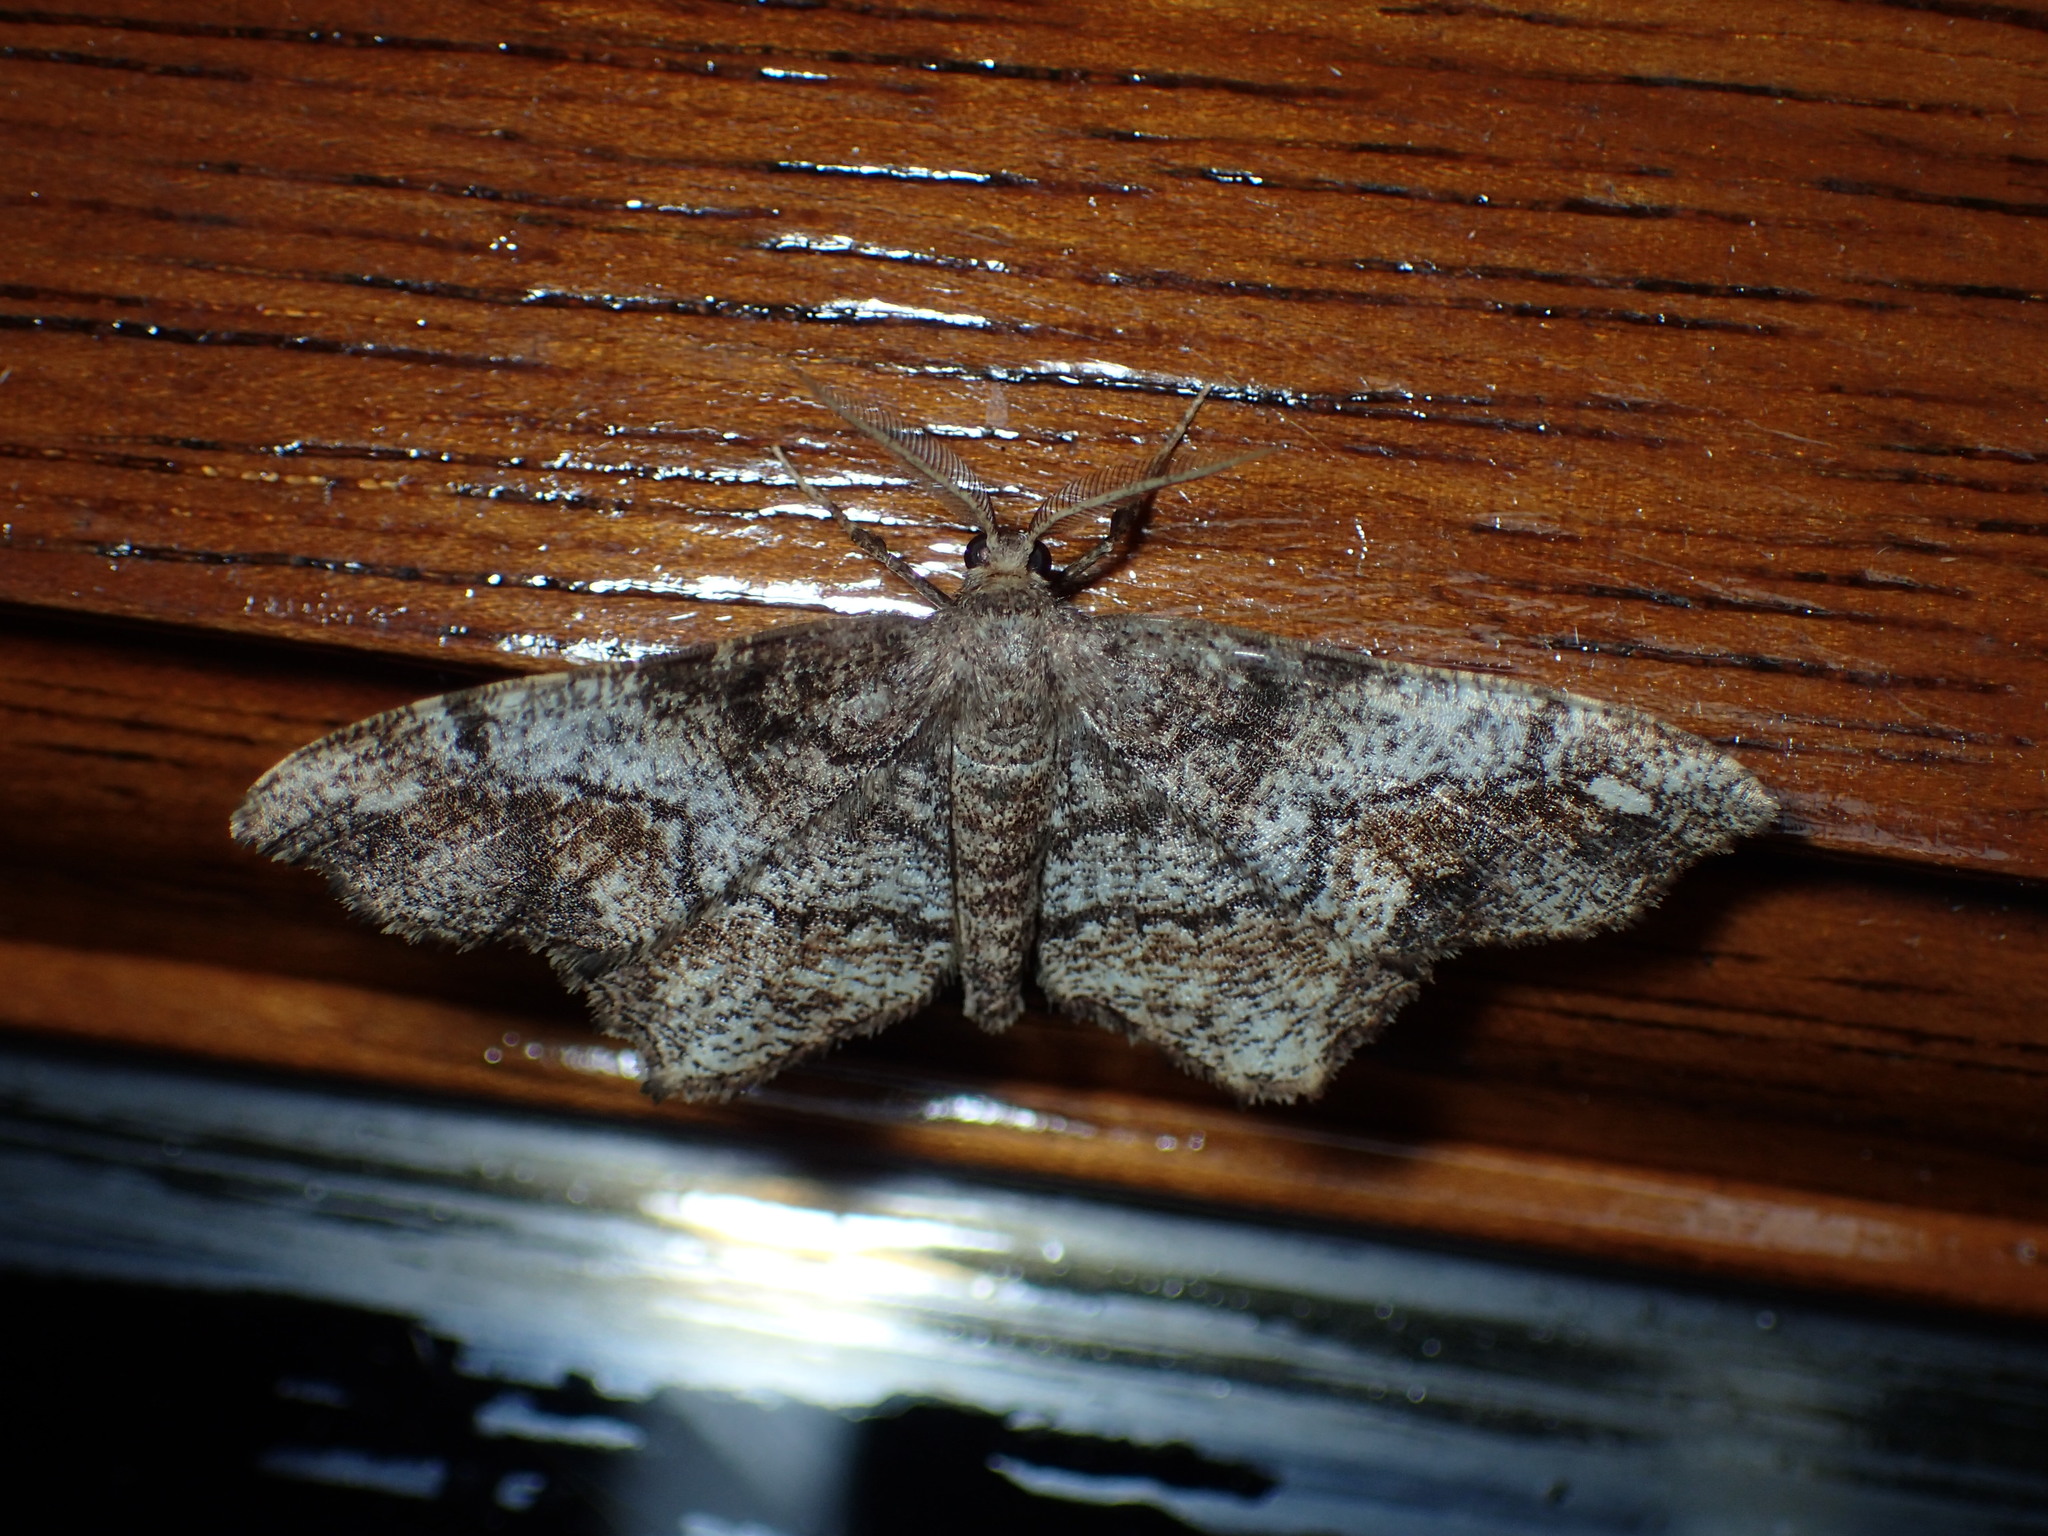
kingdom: Animalia
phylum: Arthropoda
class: Insecta
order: Lepidoptera
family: Geometridae
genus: Hypagyrtis
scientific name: Hypagyrtis unipunctata
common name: One-spotted variant
